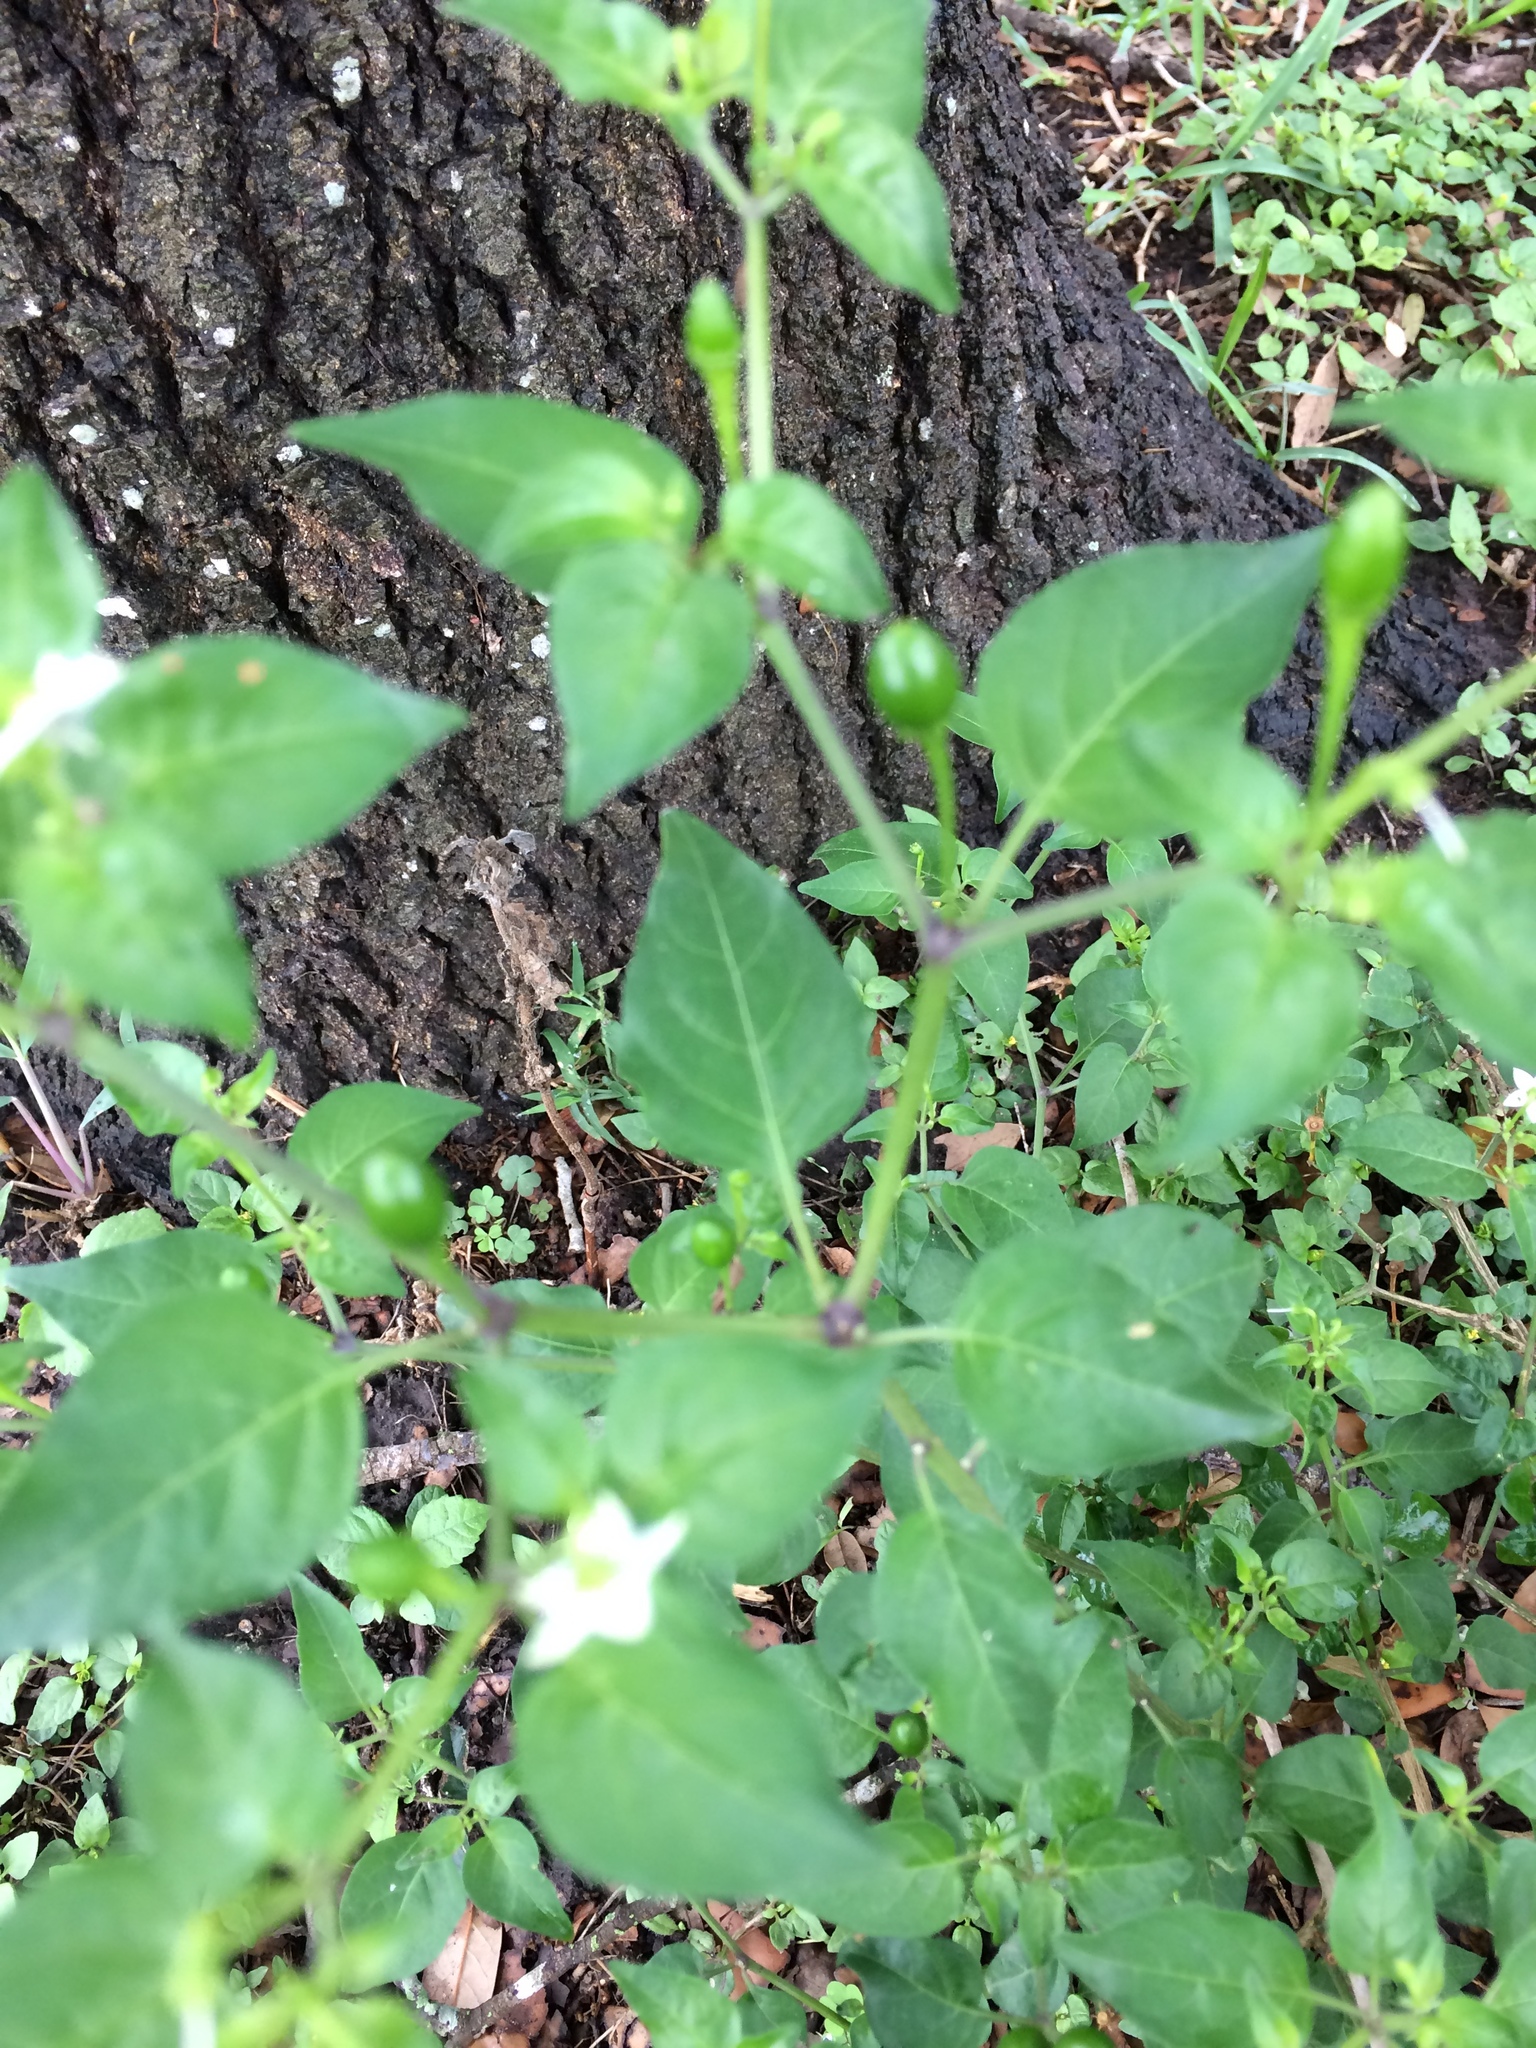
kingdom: Plantae
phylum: Tracheophyta
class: Magnoliopsida
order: Solanales
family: Solanaceae
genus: Capsicum
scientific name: Capsicum annuum
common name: Sweet pepper
